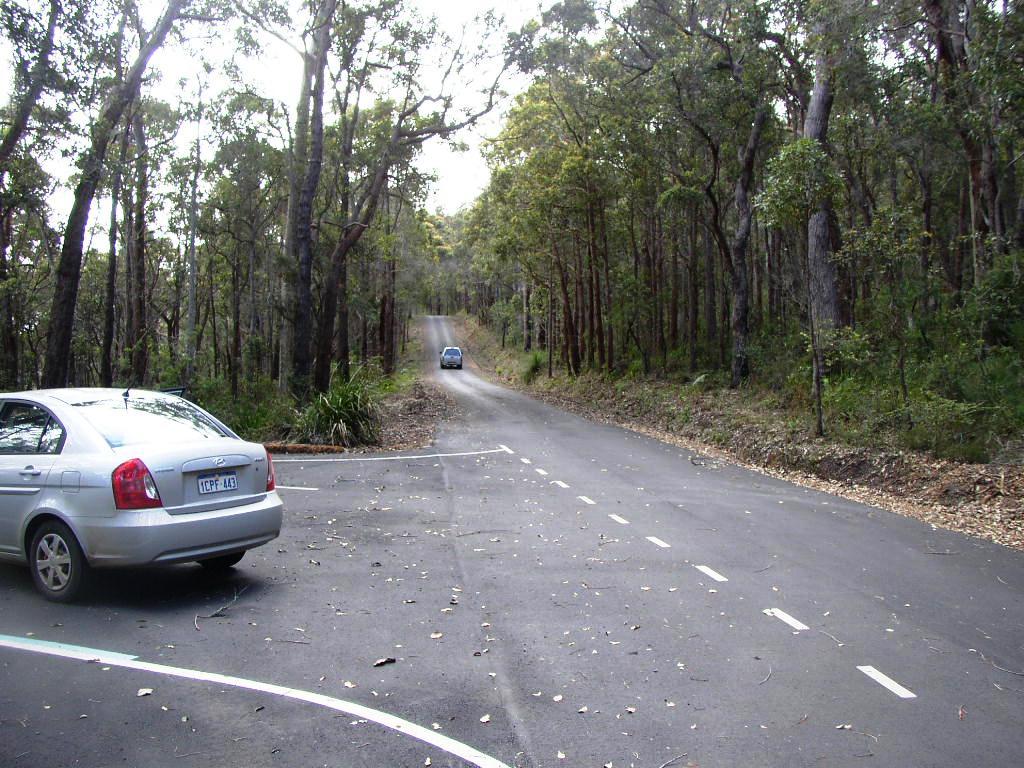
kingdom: Plantae
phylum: Tracheophyta
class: Magnoliopsida
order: Myrtales
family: Myrtaceae
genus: Eucalyptus
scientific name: Eucalyptus marginata
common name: Jarrah
